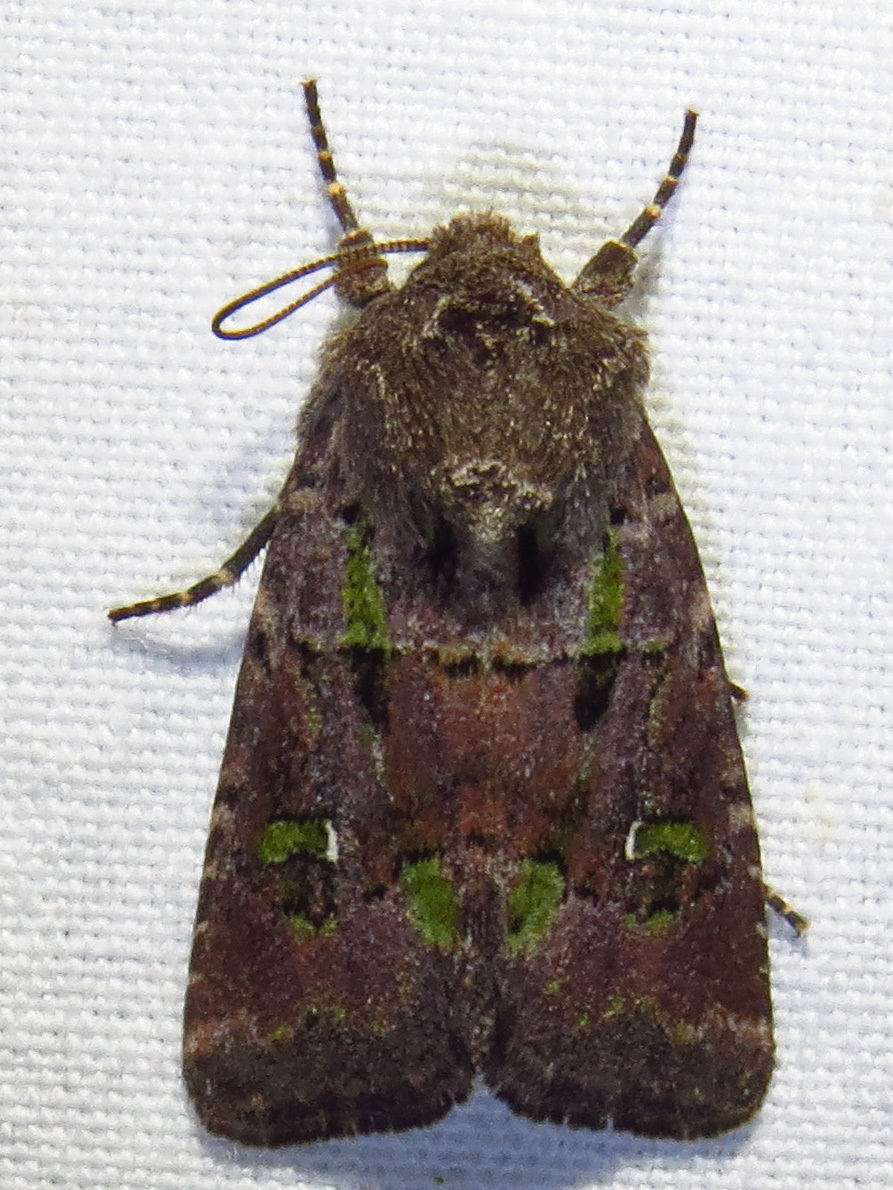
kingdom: Animalia
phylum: Arthropoda
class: Insecta
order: Lepidoptera
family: Noctuidae
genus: Lacinipolia
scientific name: Lacinipolia renigera
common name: Kidney-spotted minor
